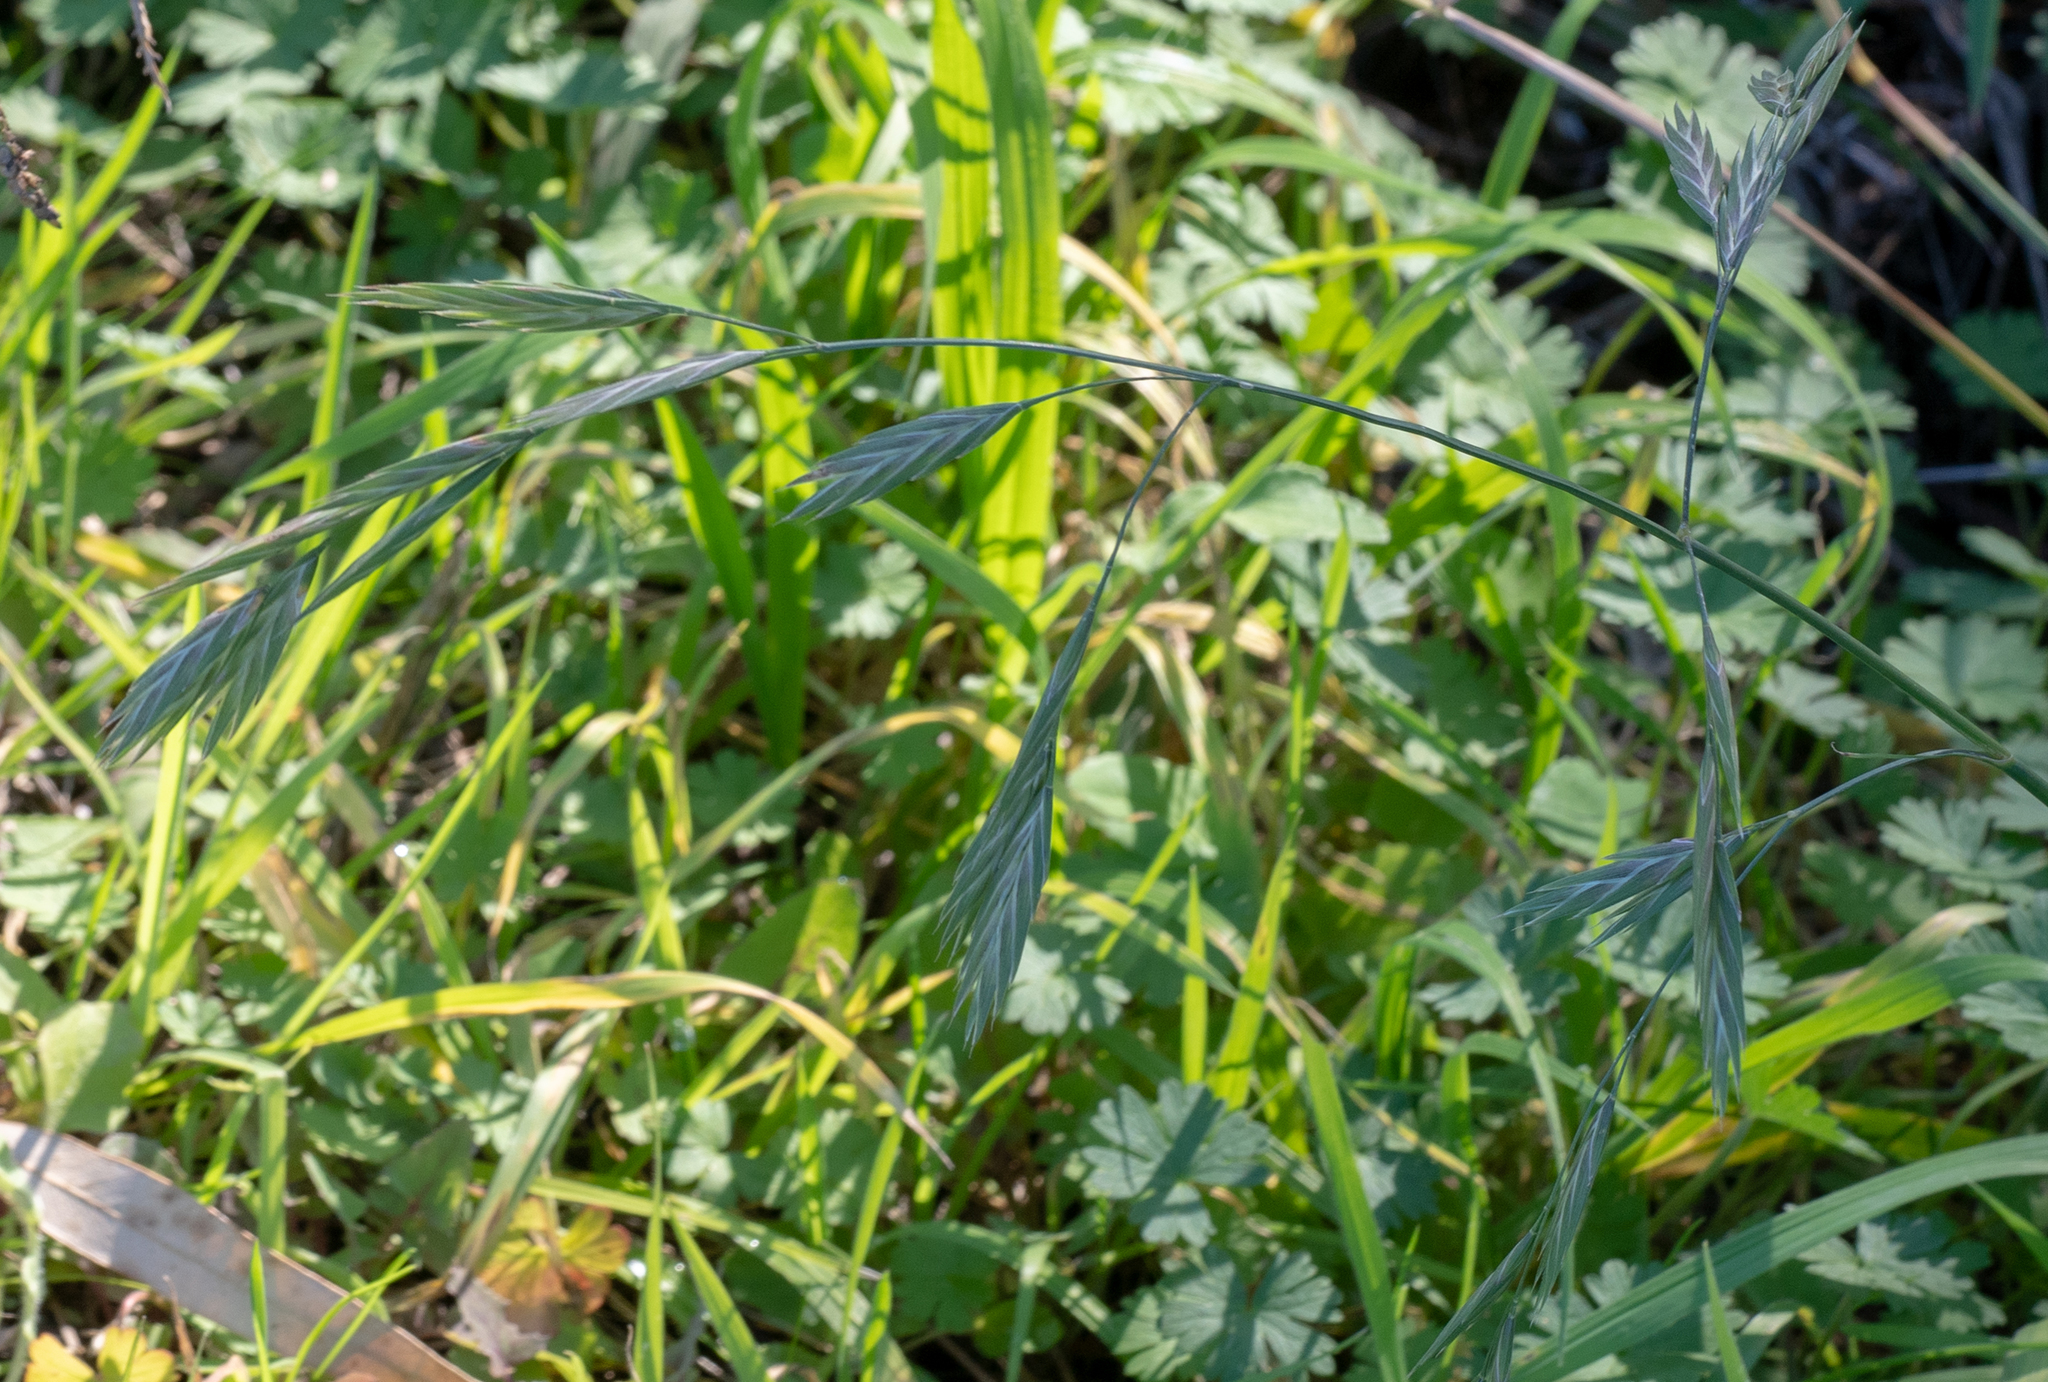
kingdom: Plantae
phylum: Tracheophyta
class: Liliopsida
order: Poales
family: Poaceae
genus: Bromus
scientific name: Bromus catharticus
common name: Rescuegrass
